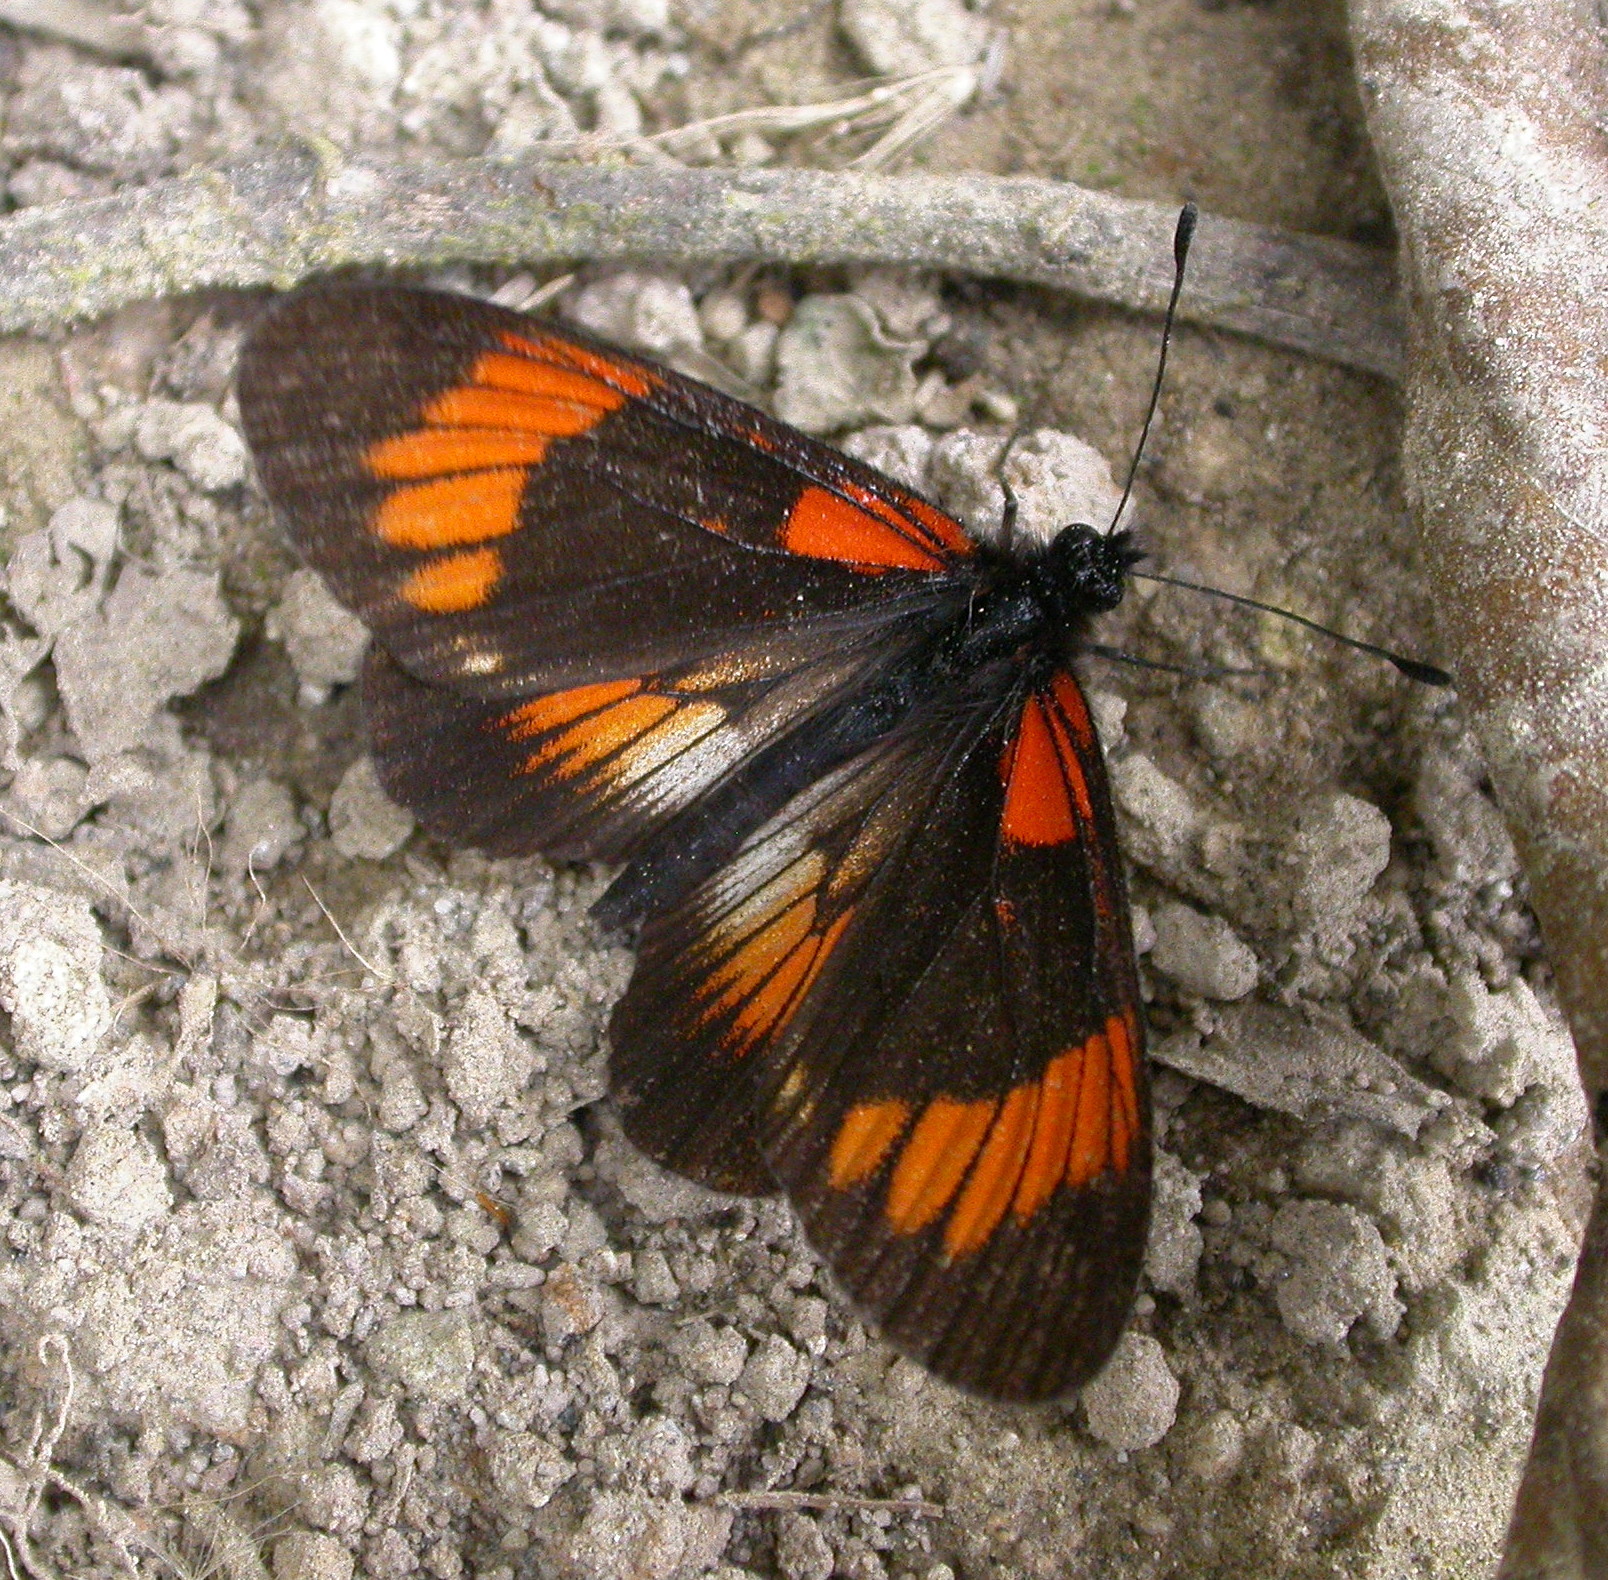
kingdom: Animalia
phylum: Arthropoda
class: Insecta
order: Lepidoptera
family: Nymphalidae
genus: Actinote
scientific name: Actinote
